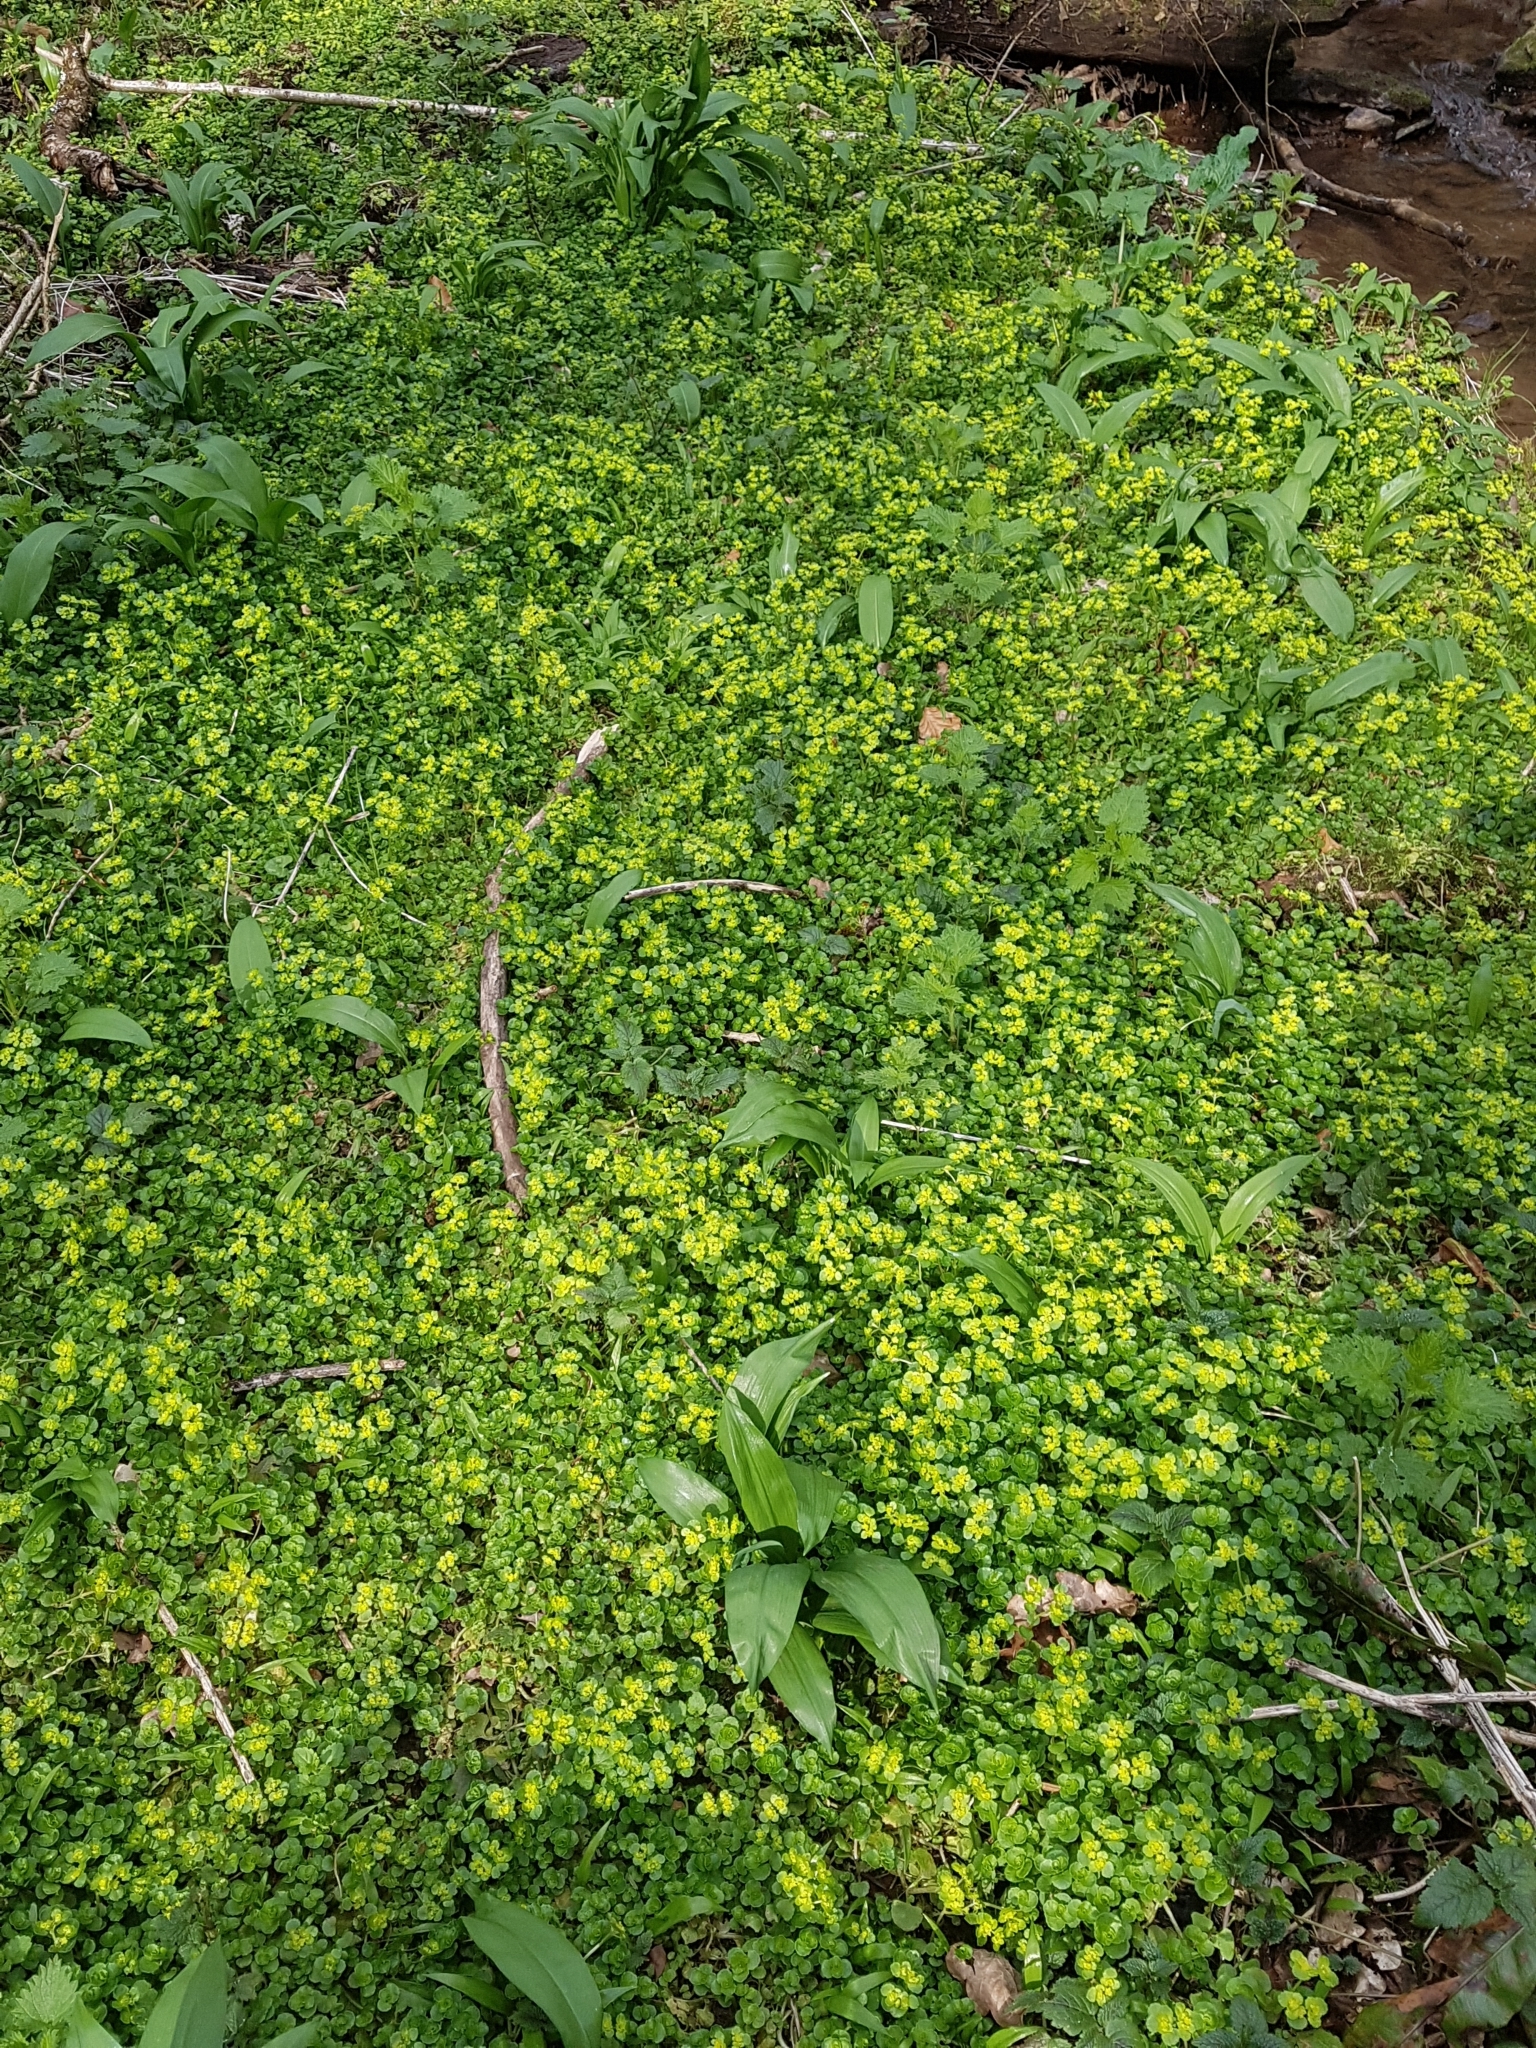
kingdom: Plantae
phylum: Tracheophyta
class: Magnoliopsida
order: Saxifragales
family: Saxifragaceae
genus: Chrysosplenium
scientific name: Chrysosplenium oppositifolium
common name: Opposite-leaved golden-saxifrage
